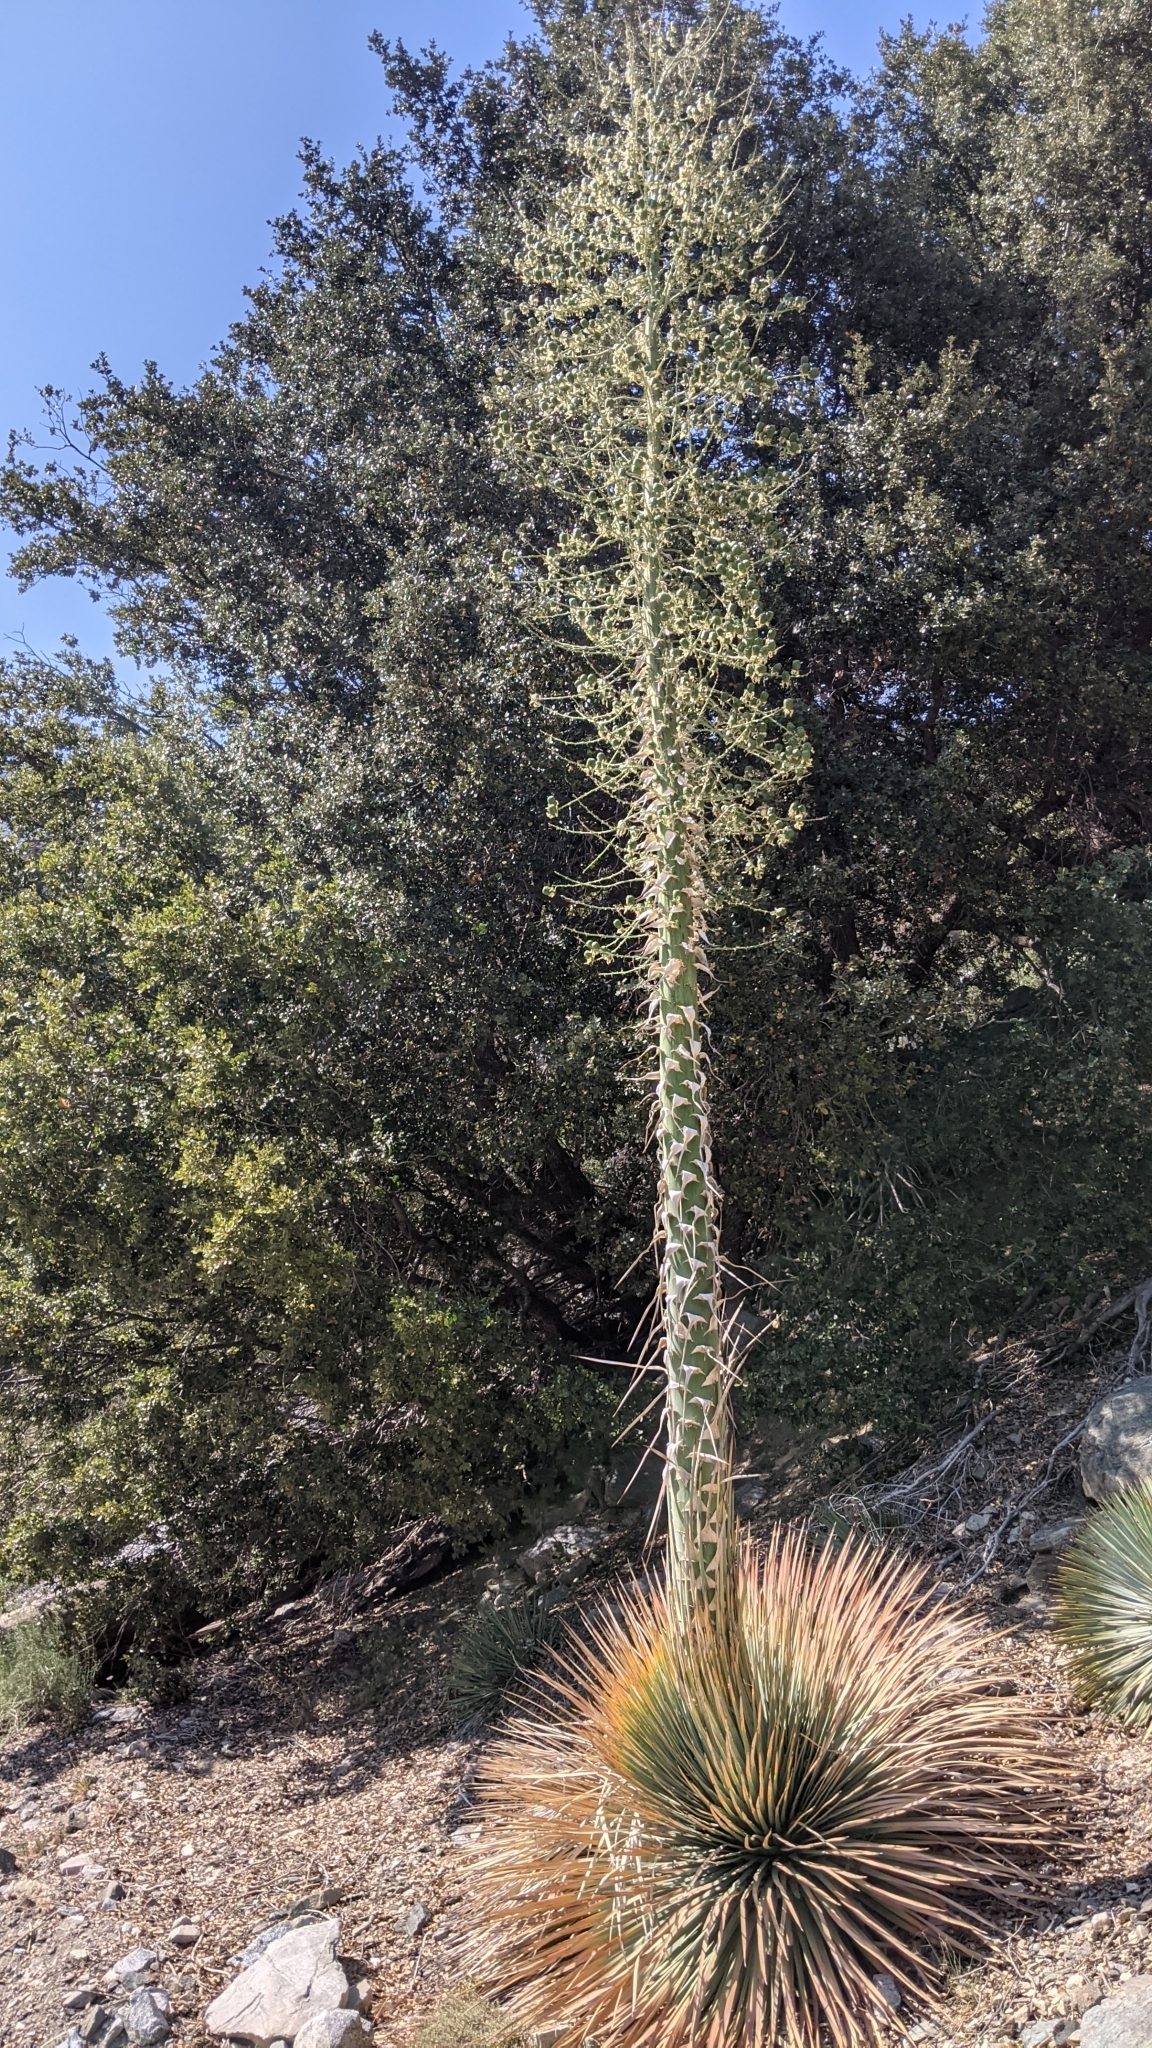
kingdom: Plantae
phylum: Tracheophyta
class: Liliopsida
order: Asparagales
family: Asparagaceae
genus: Hesperoyucca
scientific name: Hesperoyucca whipplei
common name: Our lord's-candle
